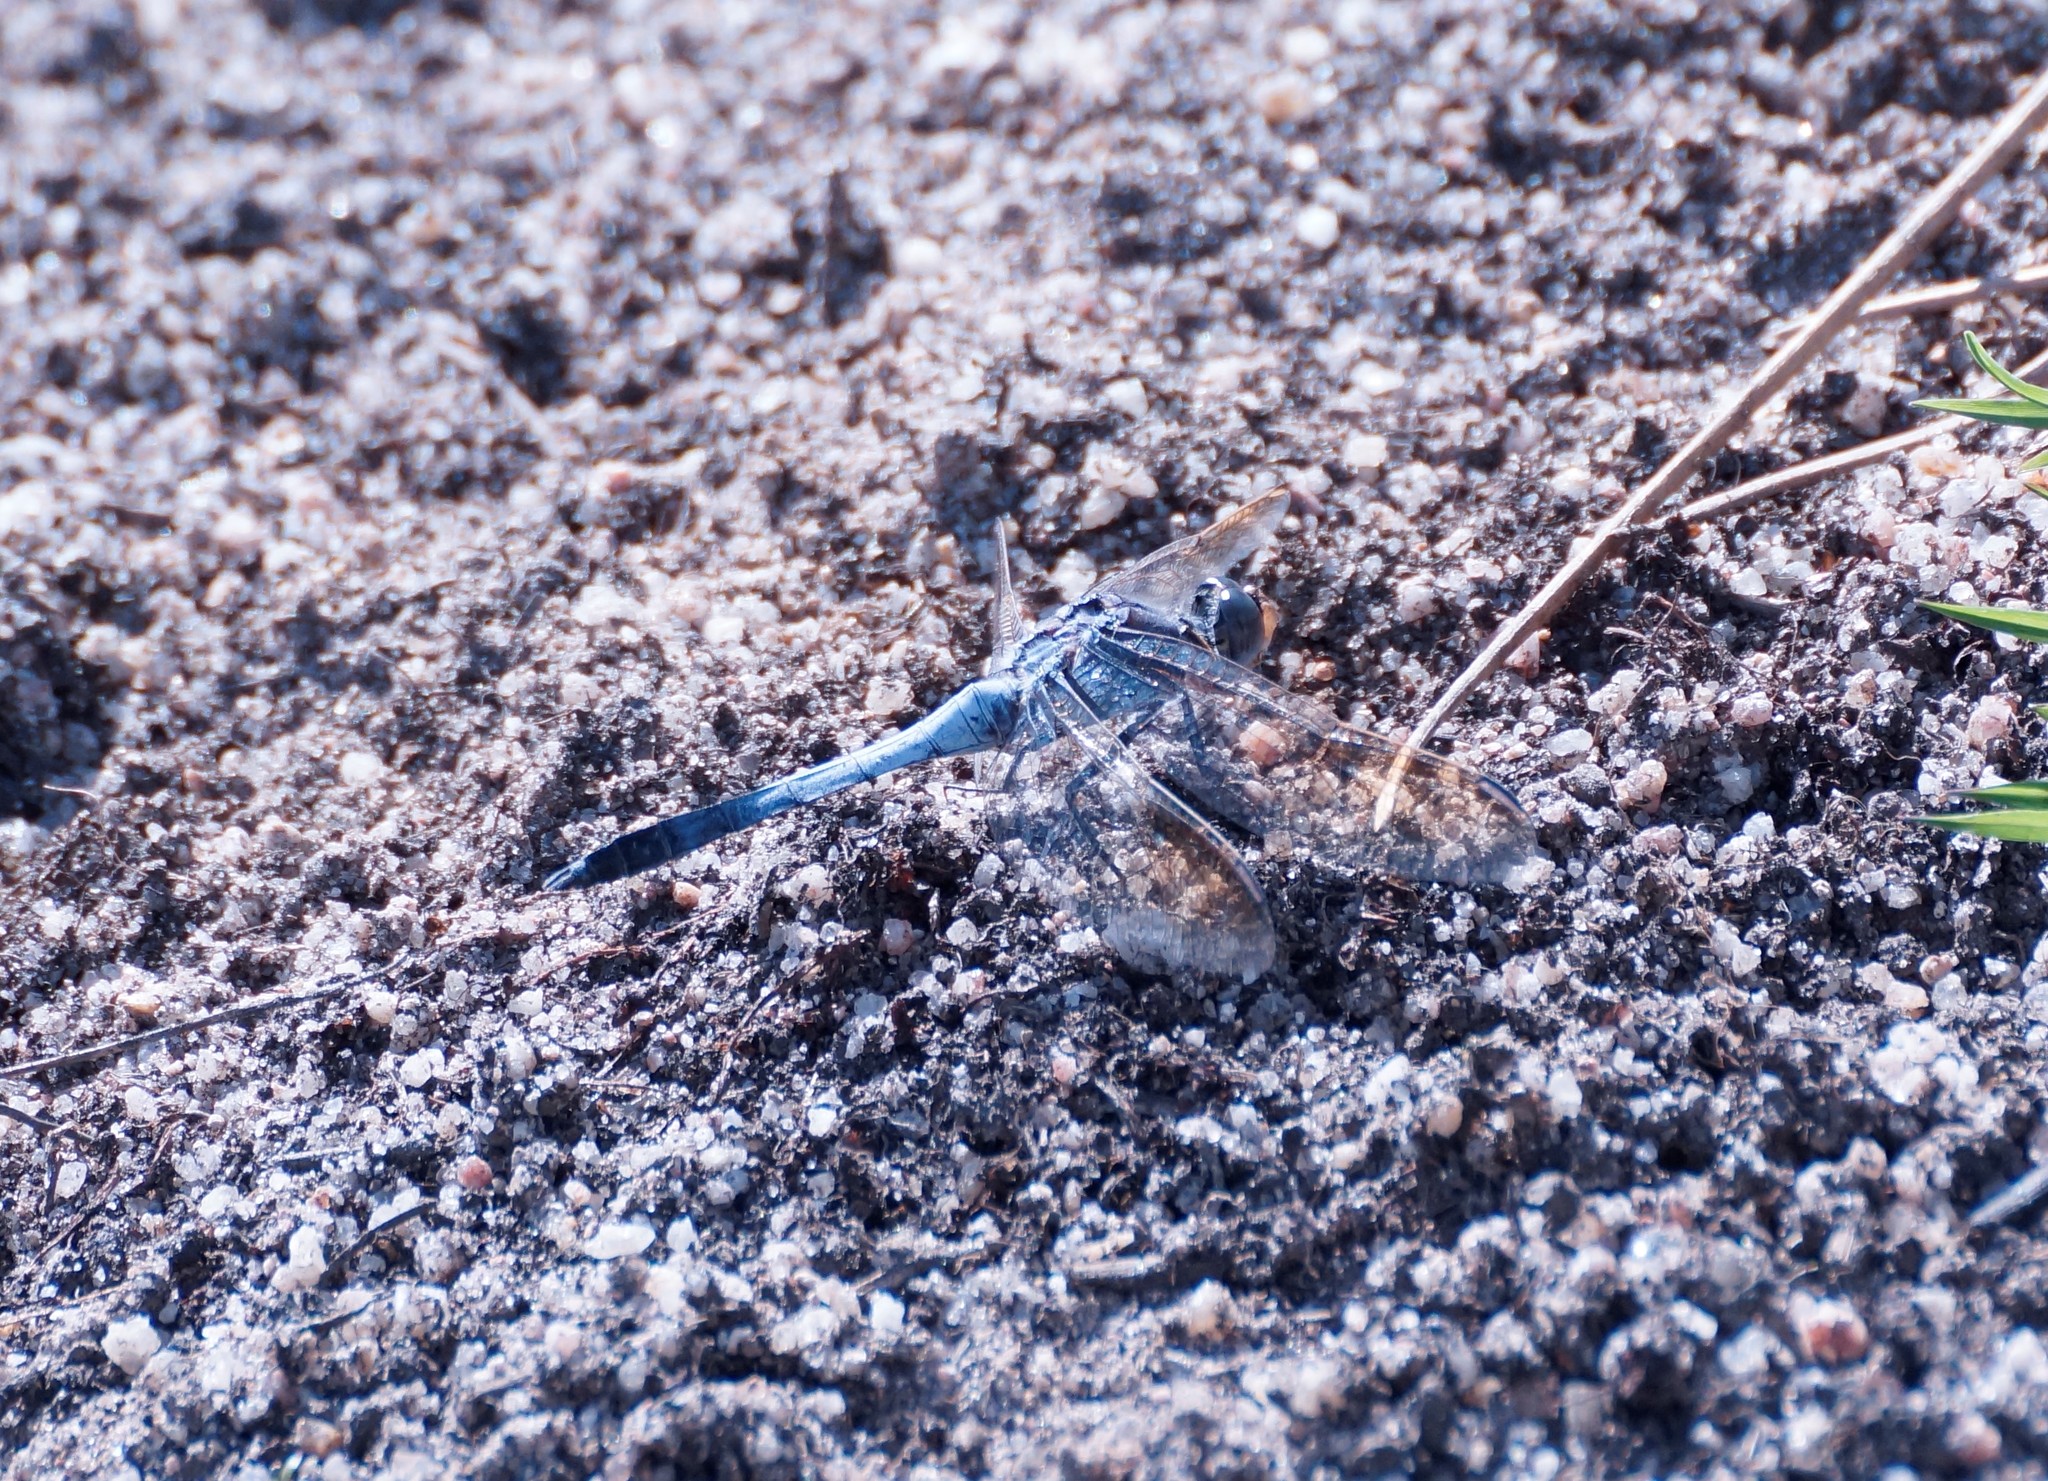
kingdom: Animalia
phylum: Arthropoda
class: Insecta
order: Odonata
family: Libellulidae
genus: Orthetrum
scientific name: Orthetrum caledonicum
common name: Blue skimmer
